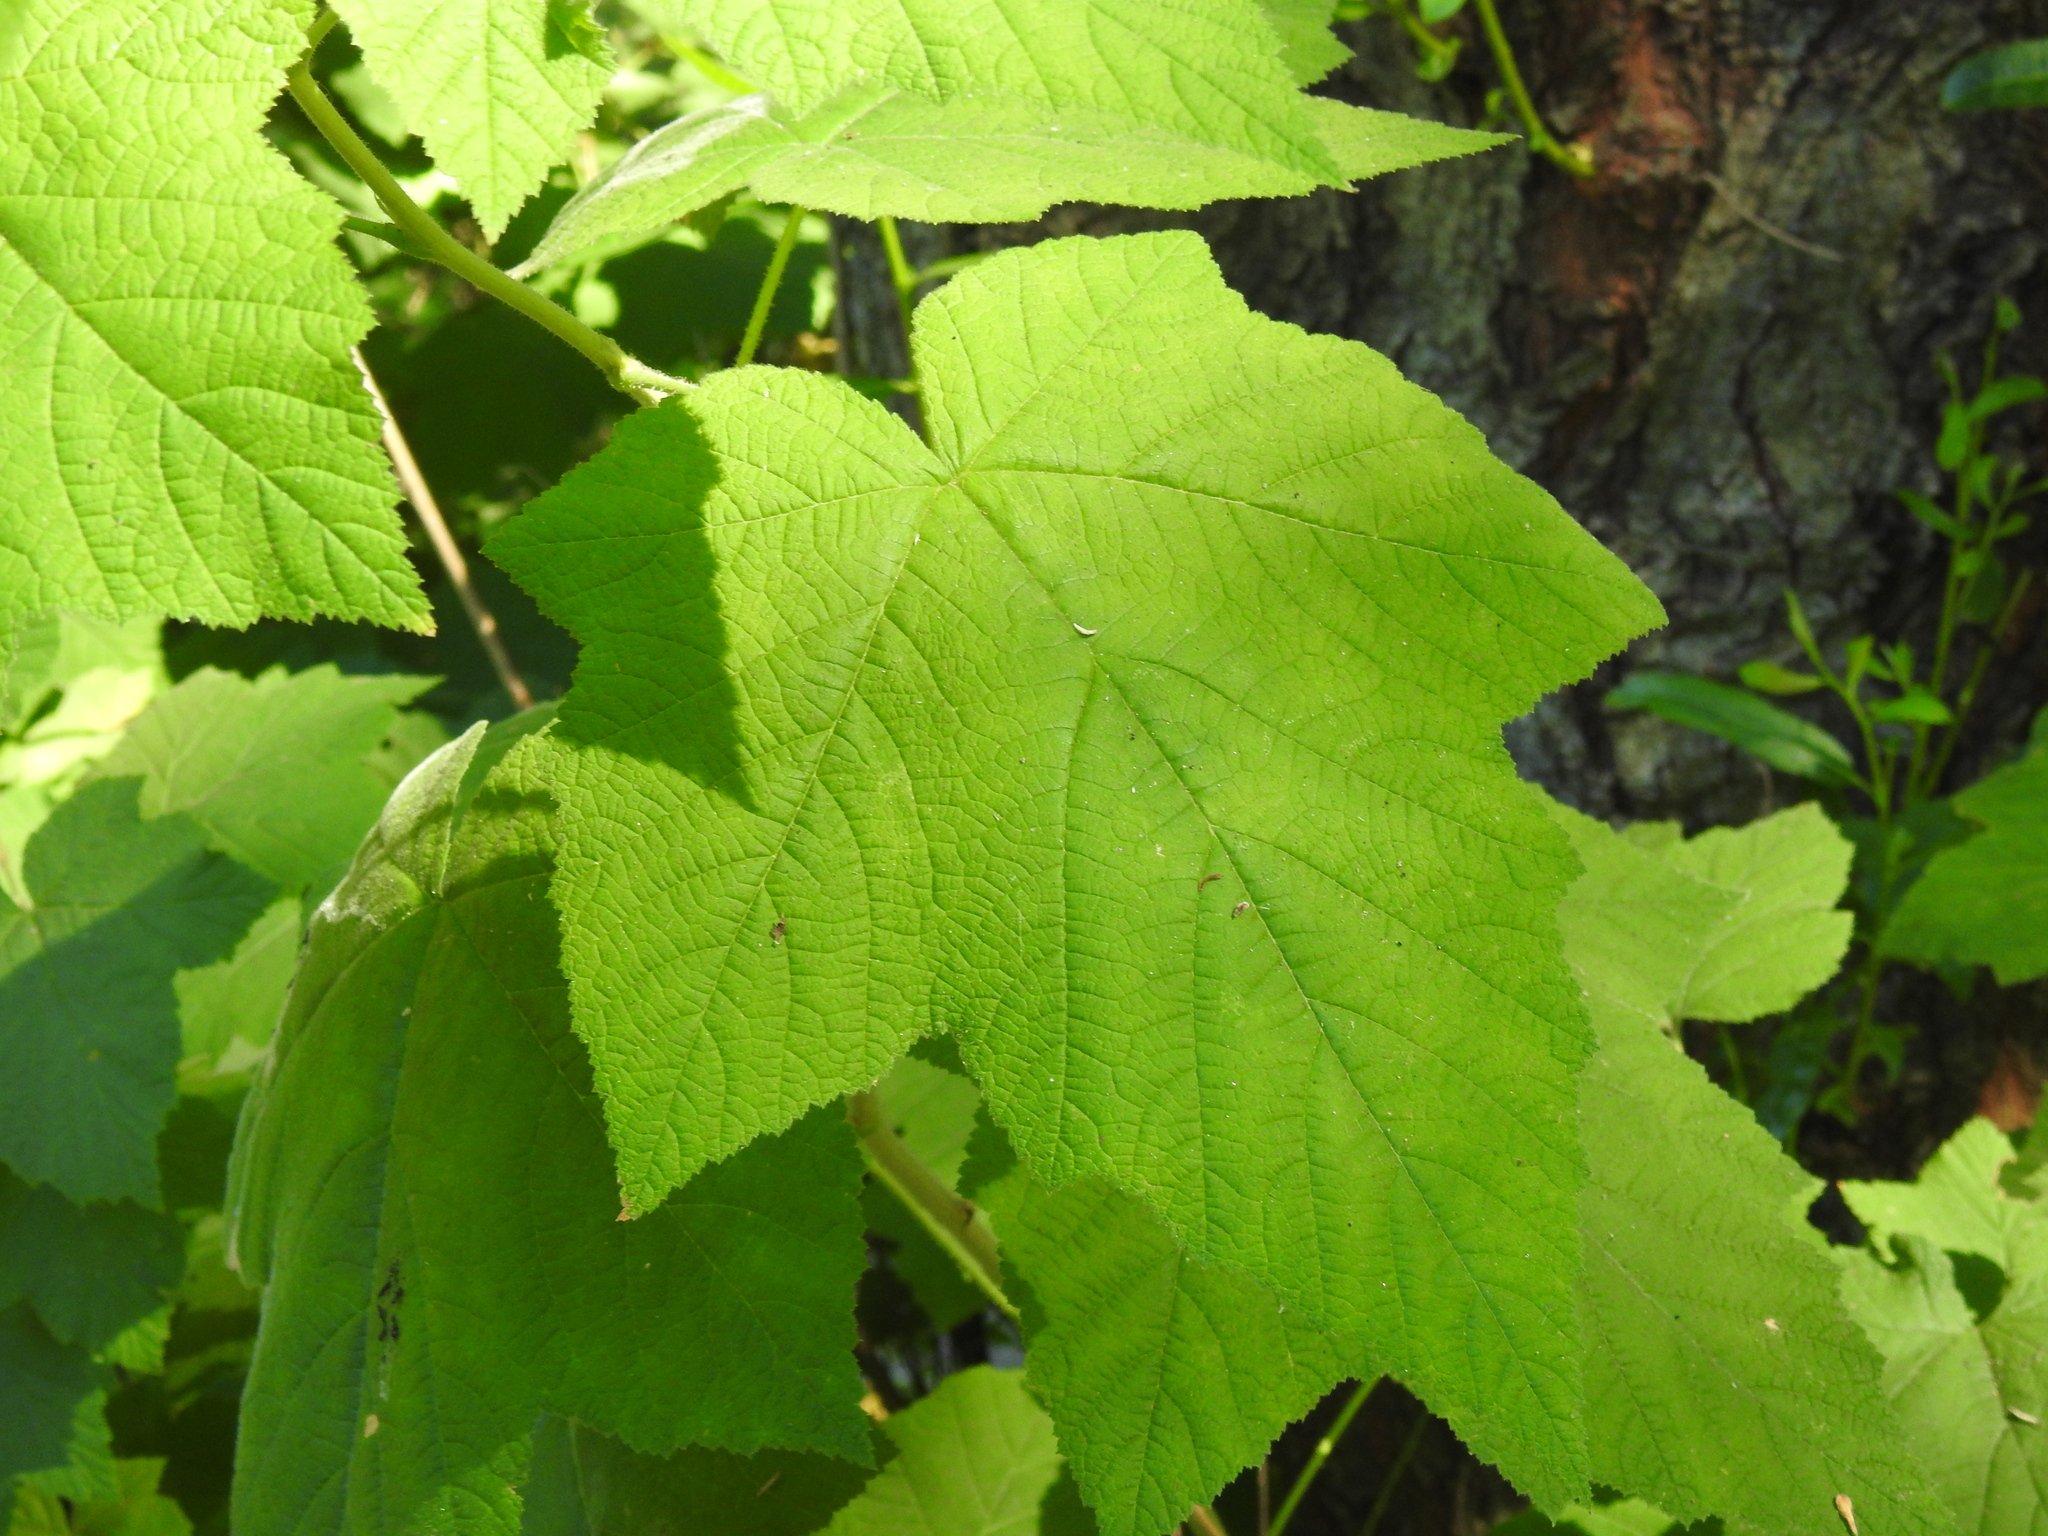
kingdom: Plantae
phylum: Tracheophyta
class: Magnoliopsida
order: Rosales
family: Rosaceae
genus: Rubus
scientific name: Rubus parviflorus
